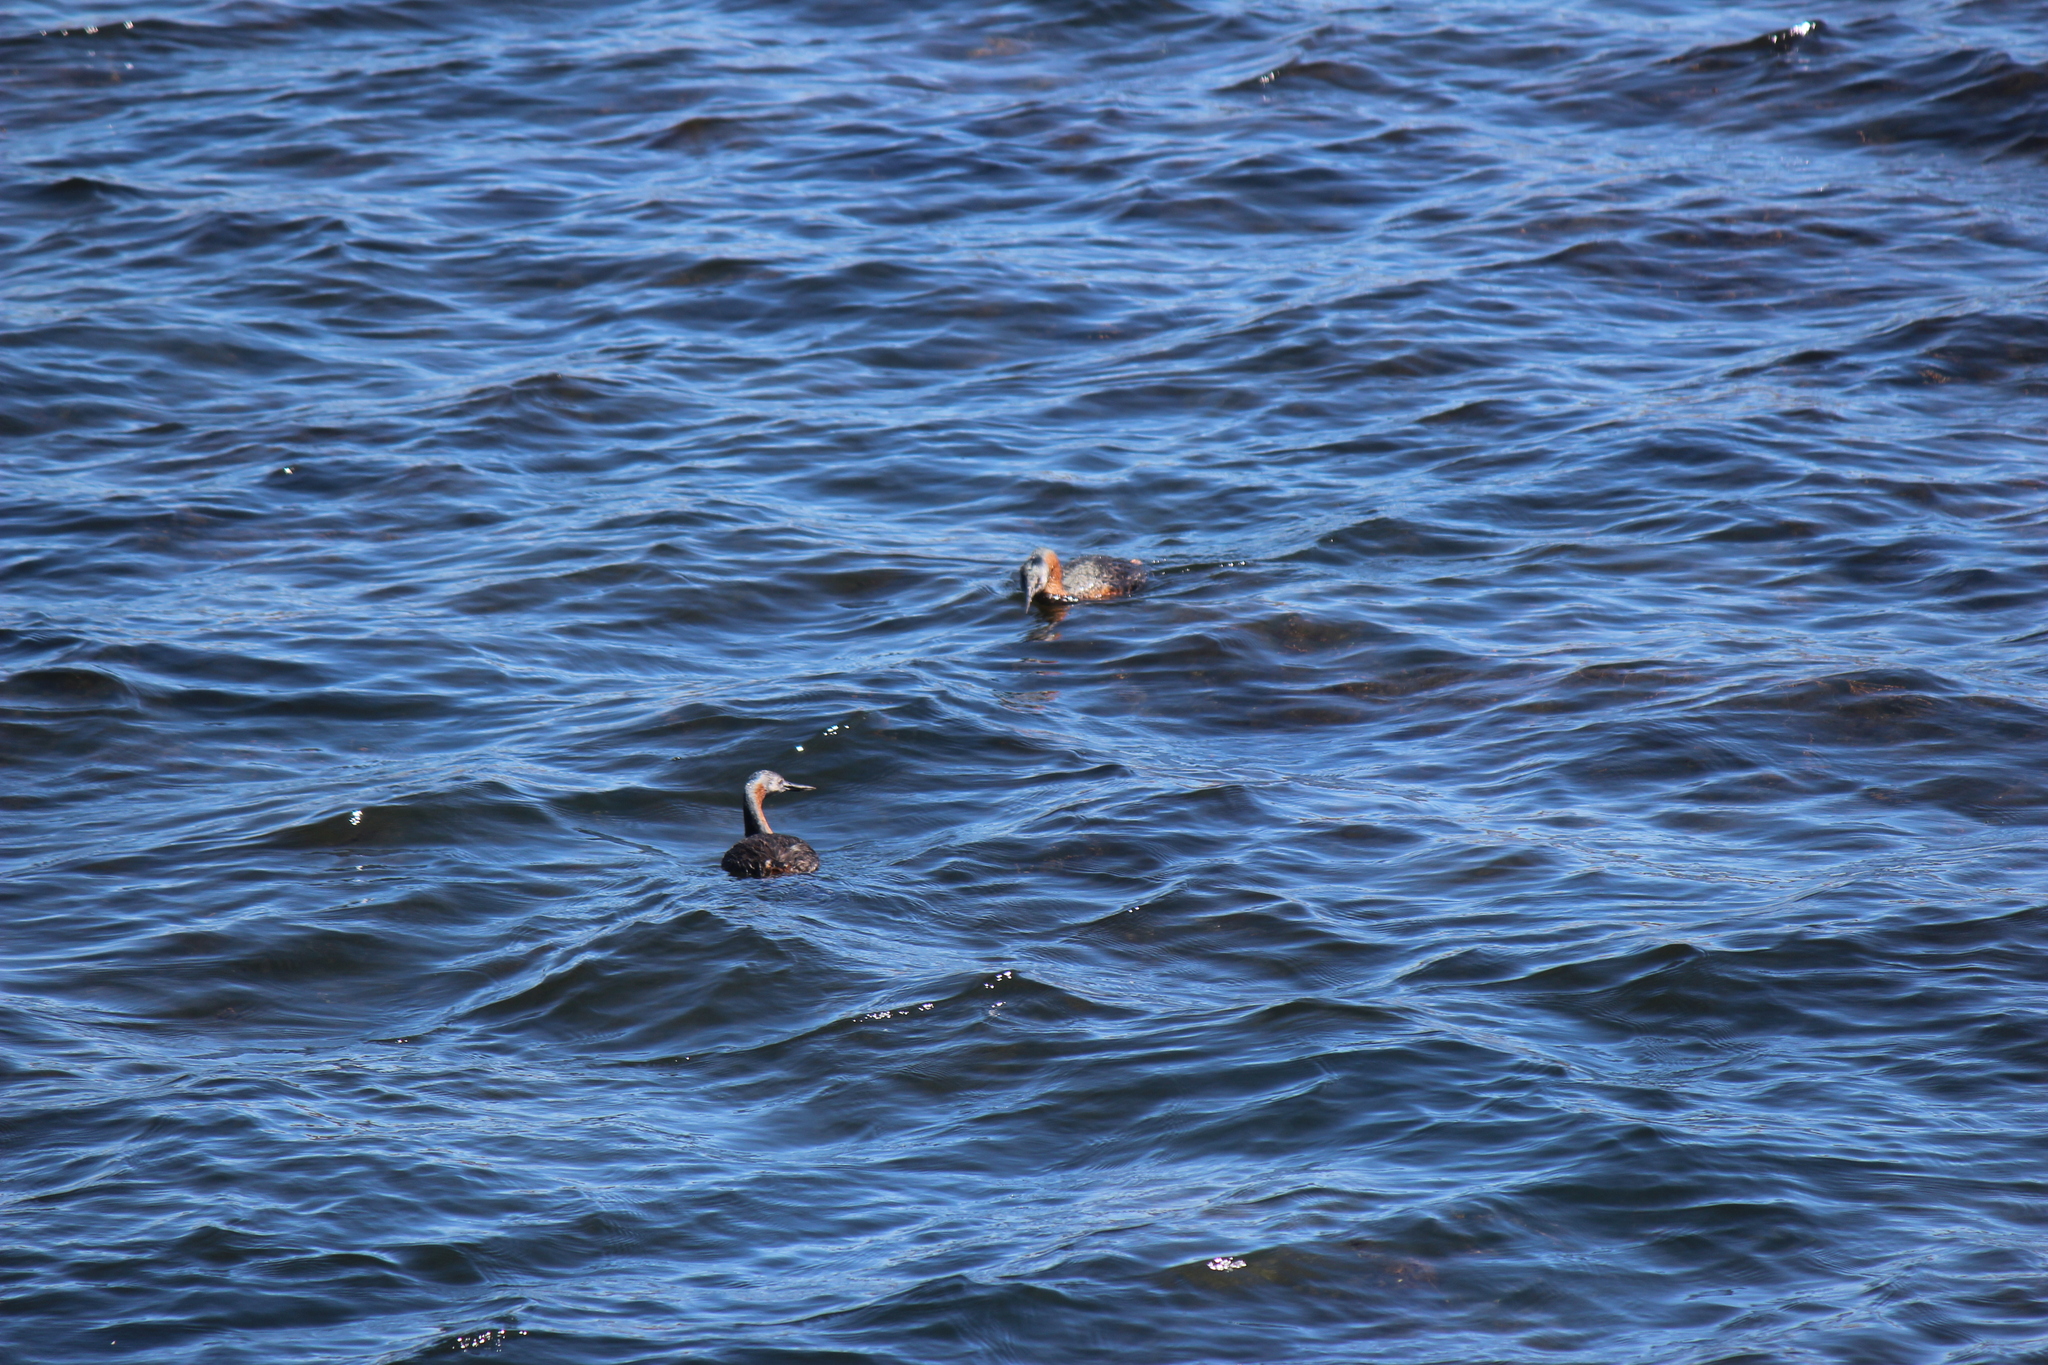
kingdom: Animalia
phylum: Chordata
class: Aves
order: Podicipediformes
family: Podicipedidae
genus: Podiceps
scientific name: Podiceps major
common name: Great grebe
